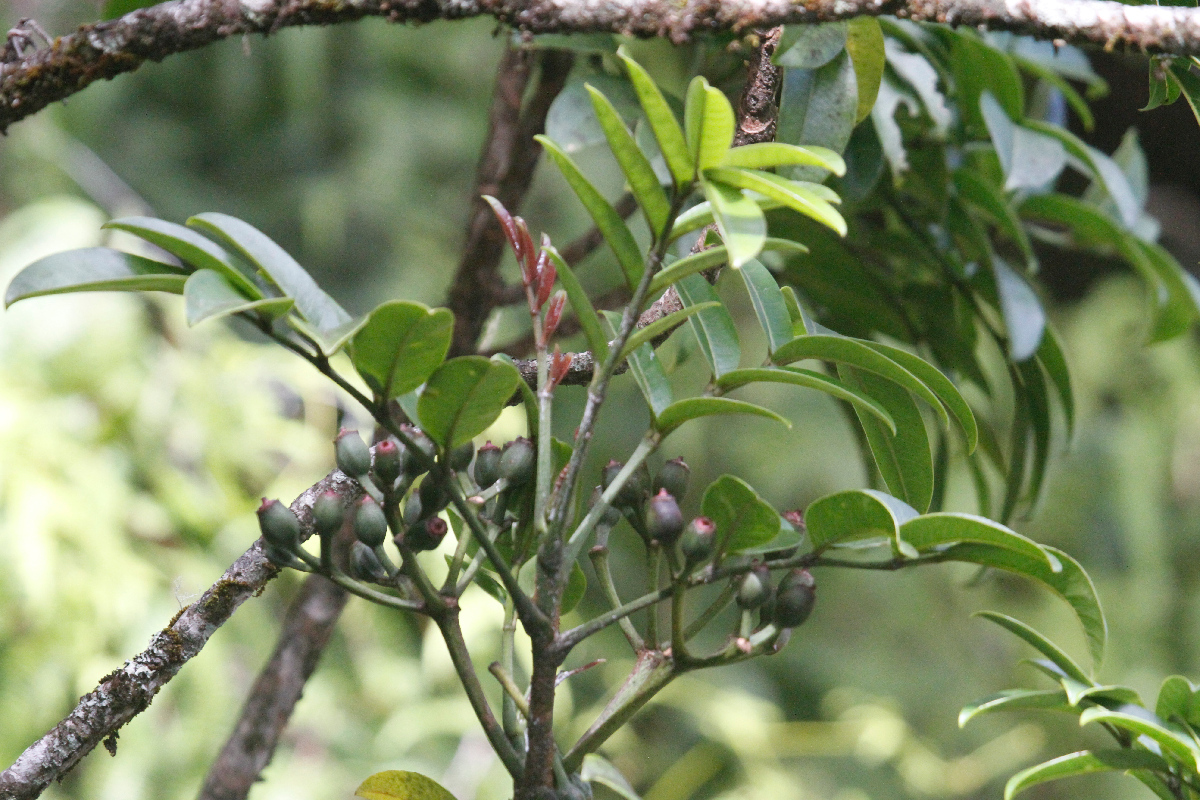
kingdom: Plantae
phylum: Tracheophyta
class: Magnoliopsida
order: Apiales
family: Araliaceae
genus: Polyscias
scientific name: Polyscias waialealae
